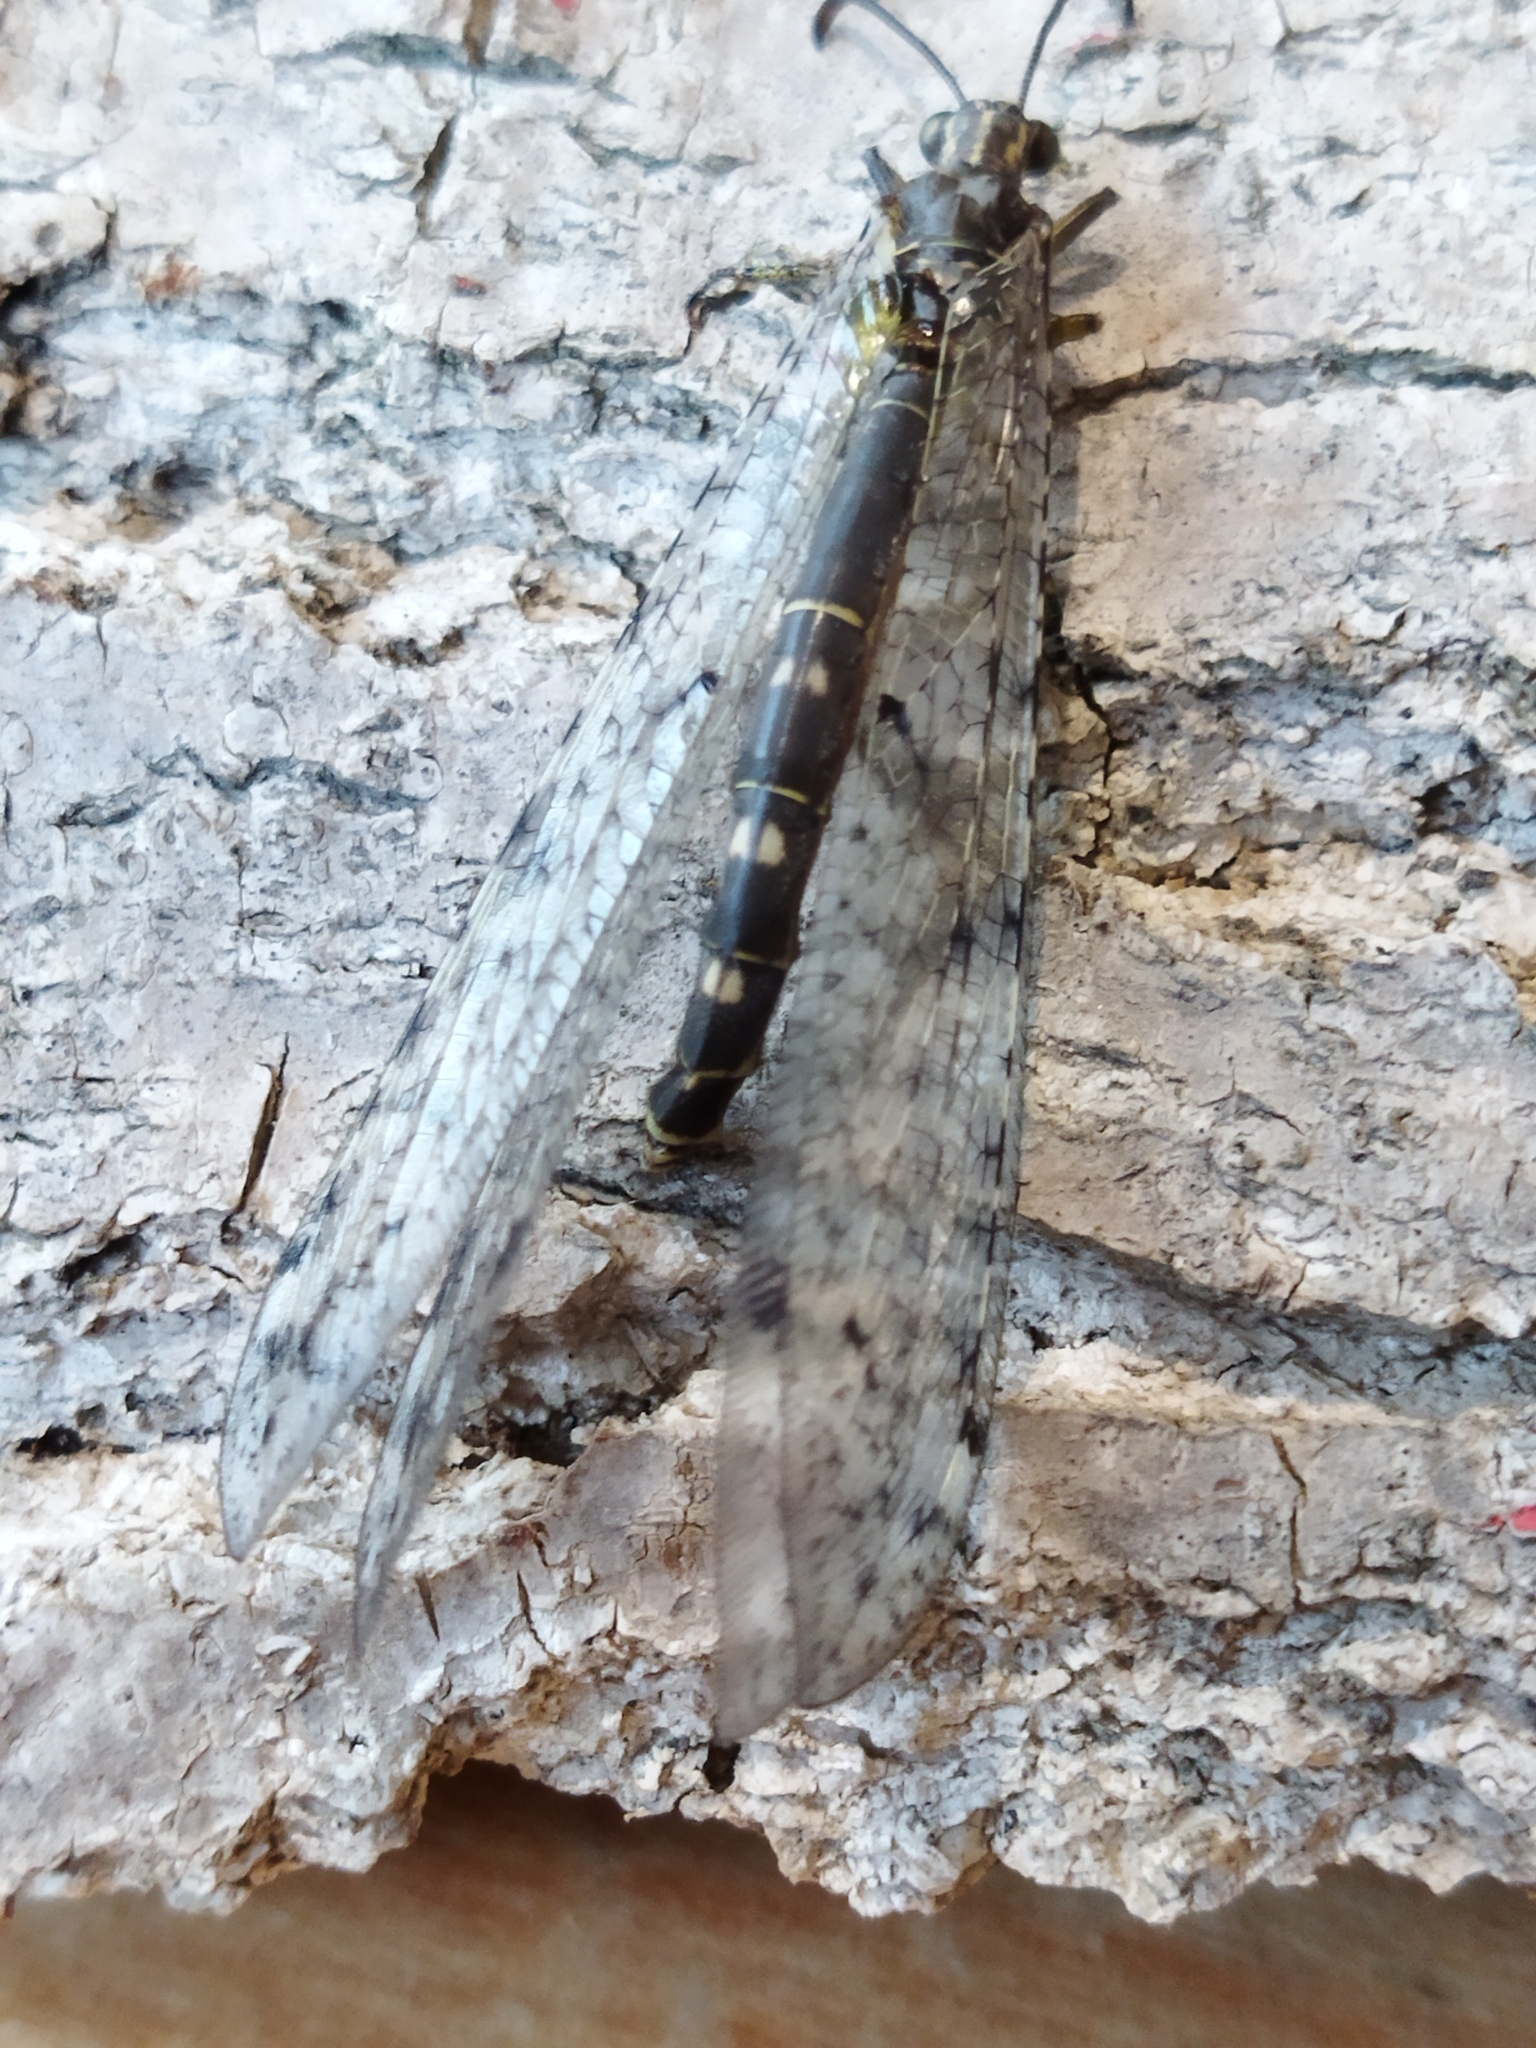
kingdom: Animalia
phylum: Arthropoda
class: Insecta
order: Neuroptera
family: Myrmeleontidae
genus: Distoleon
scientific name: Distoleon tetragrammicus
